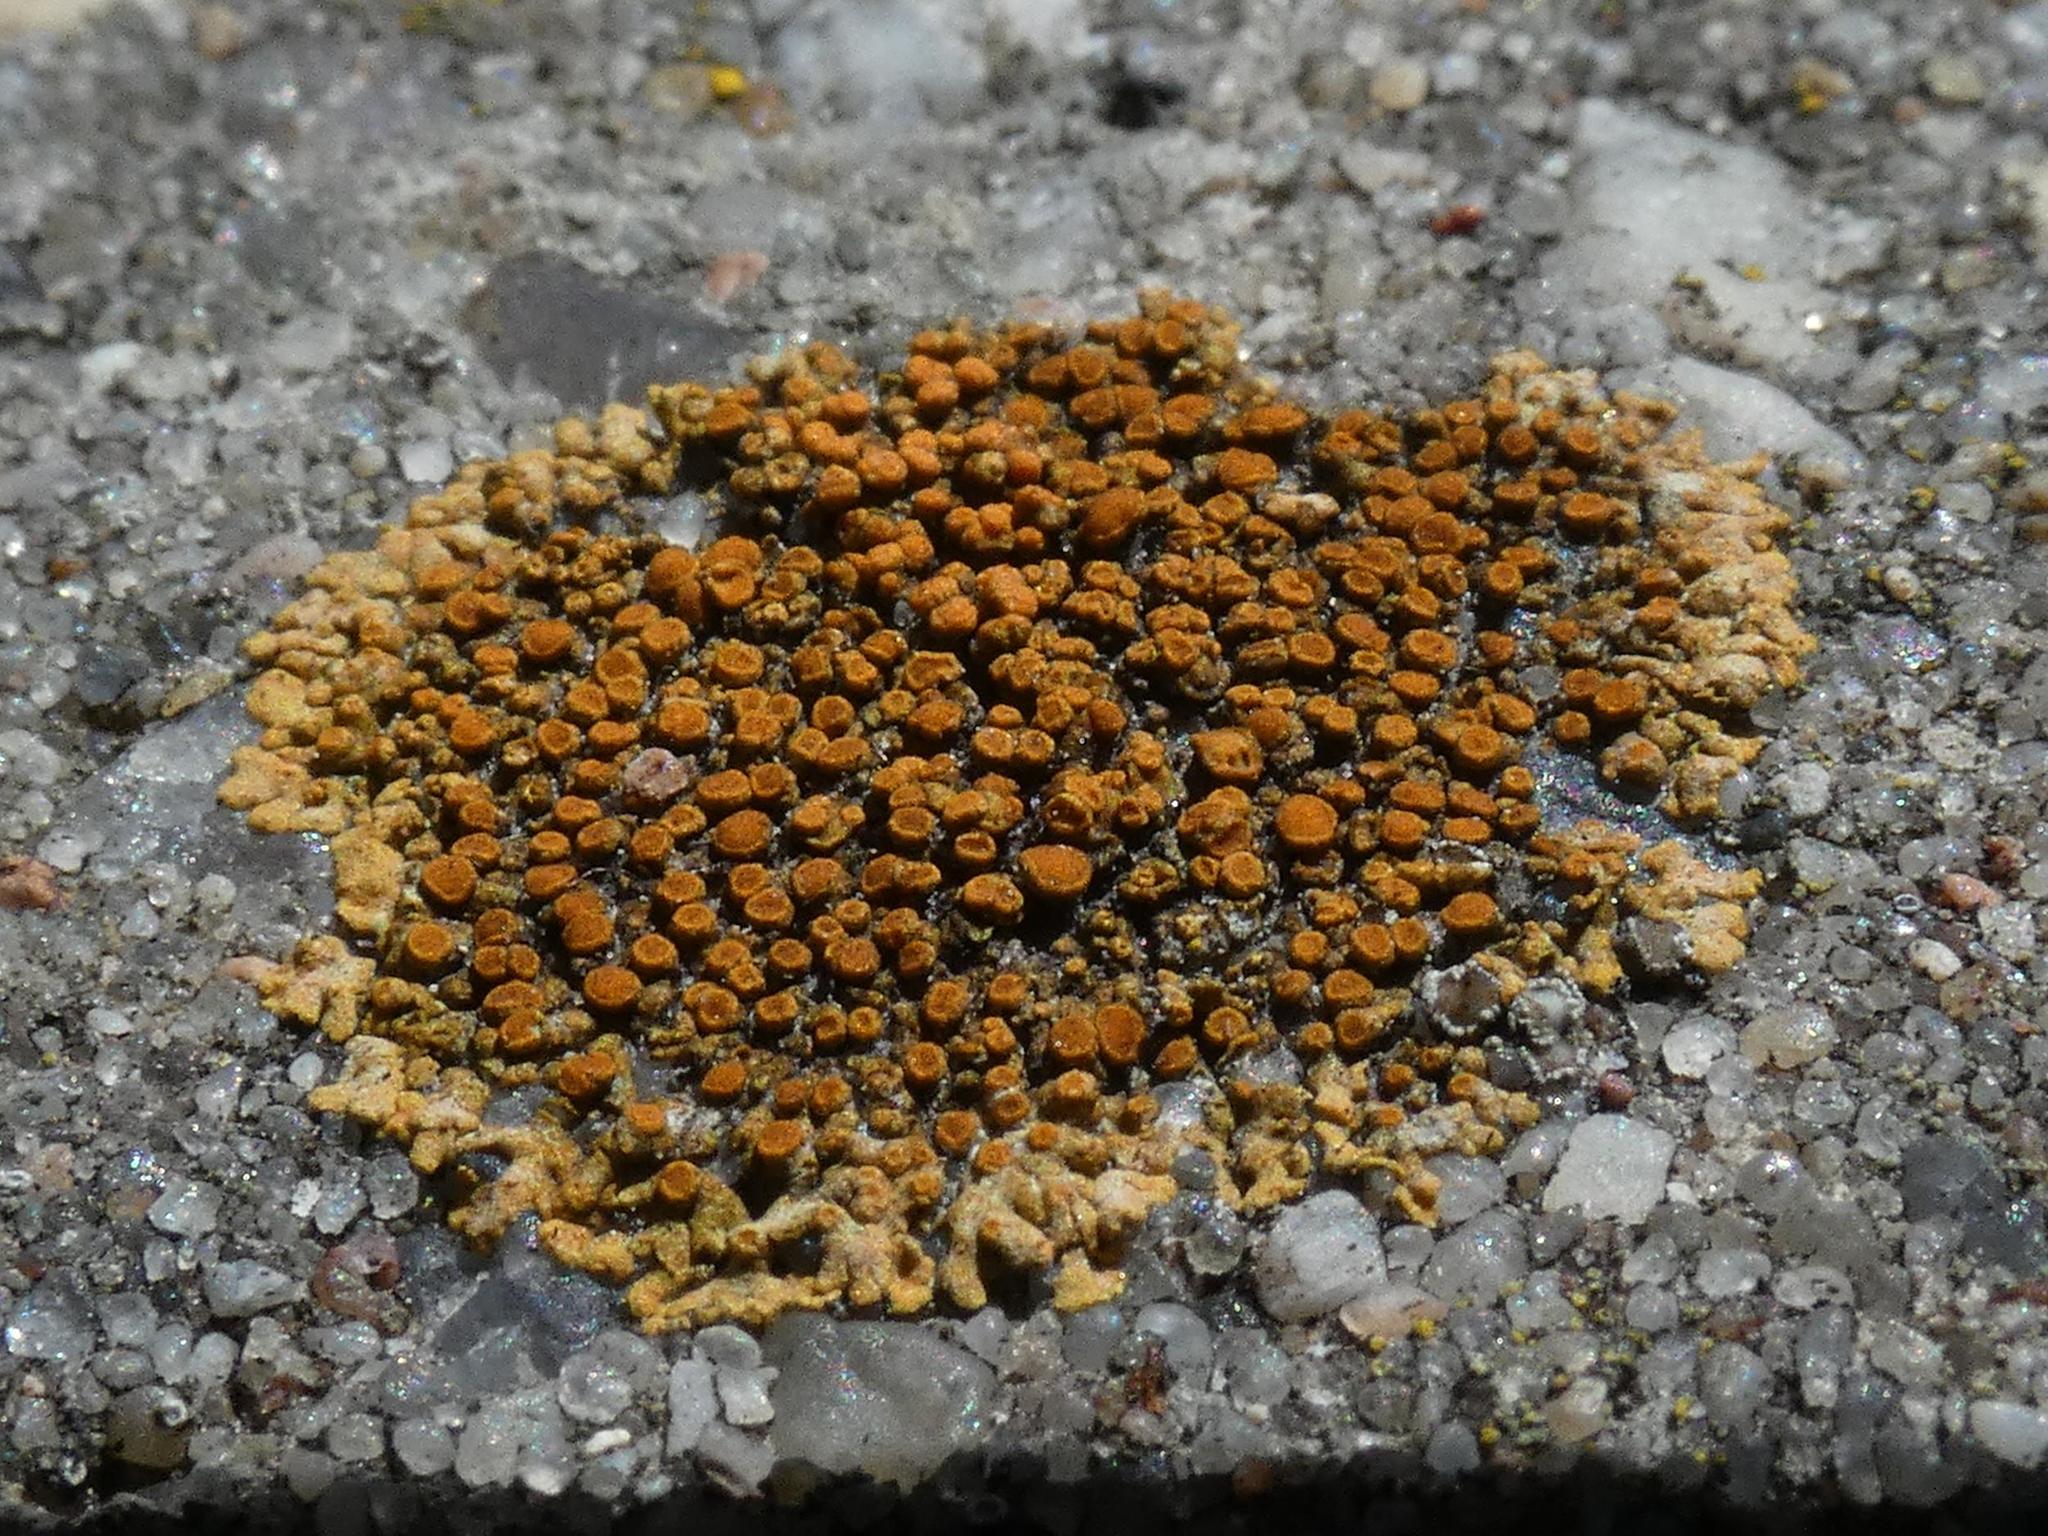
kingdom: Fungi
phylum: Ascomycota
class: Lecanoromycetes
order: Teloschistales
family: Teloschistaceae
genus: Calogaya
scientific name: Calogaya saxicola
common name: Rock jewel lichen
